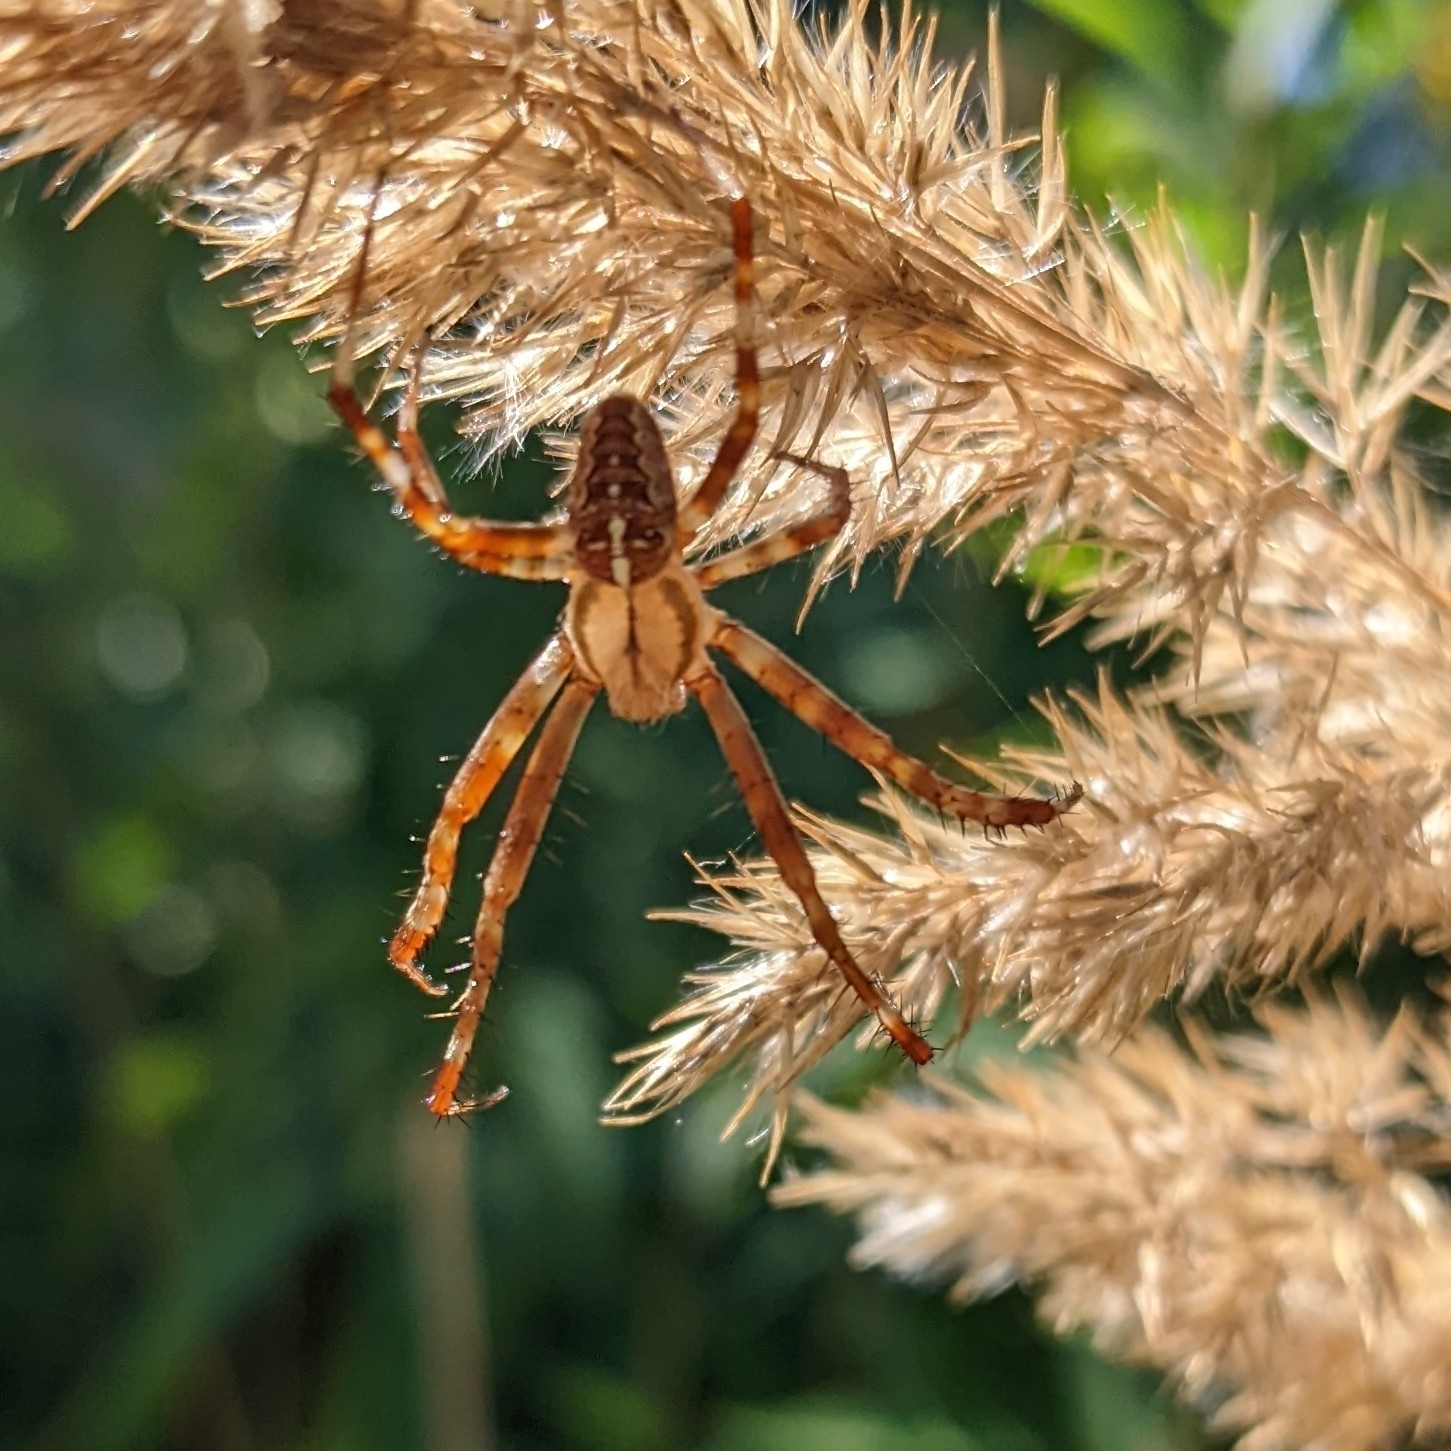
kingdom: Animalia
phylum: Arthropoda
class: Arachnida
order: Araneae
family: Araneidae
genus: Araneus
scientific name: Araneus diadematus
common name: Cross orbweaver
